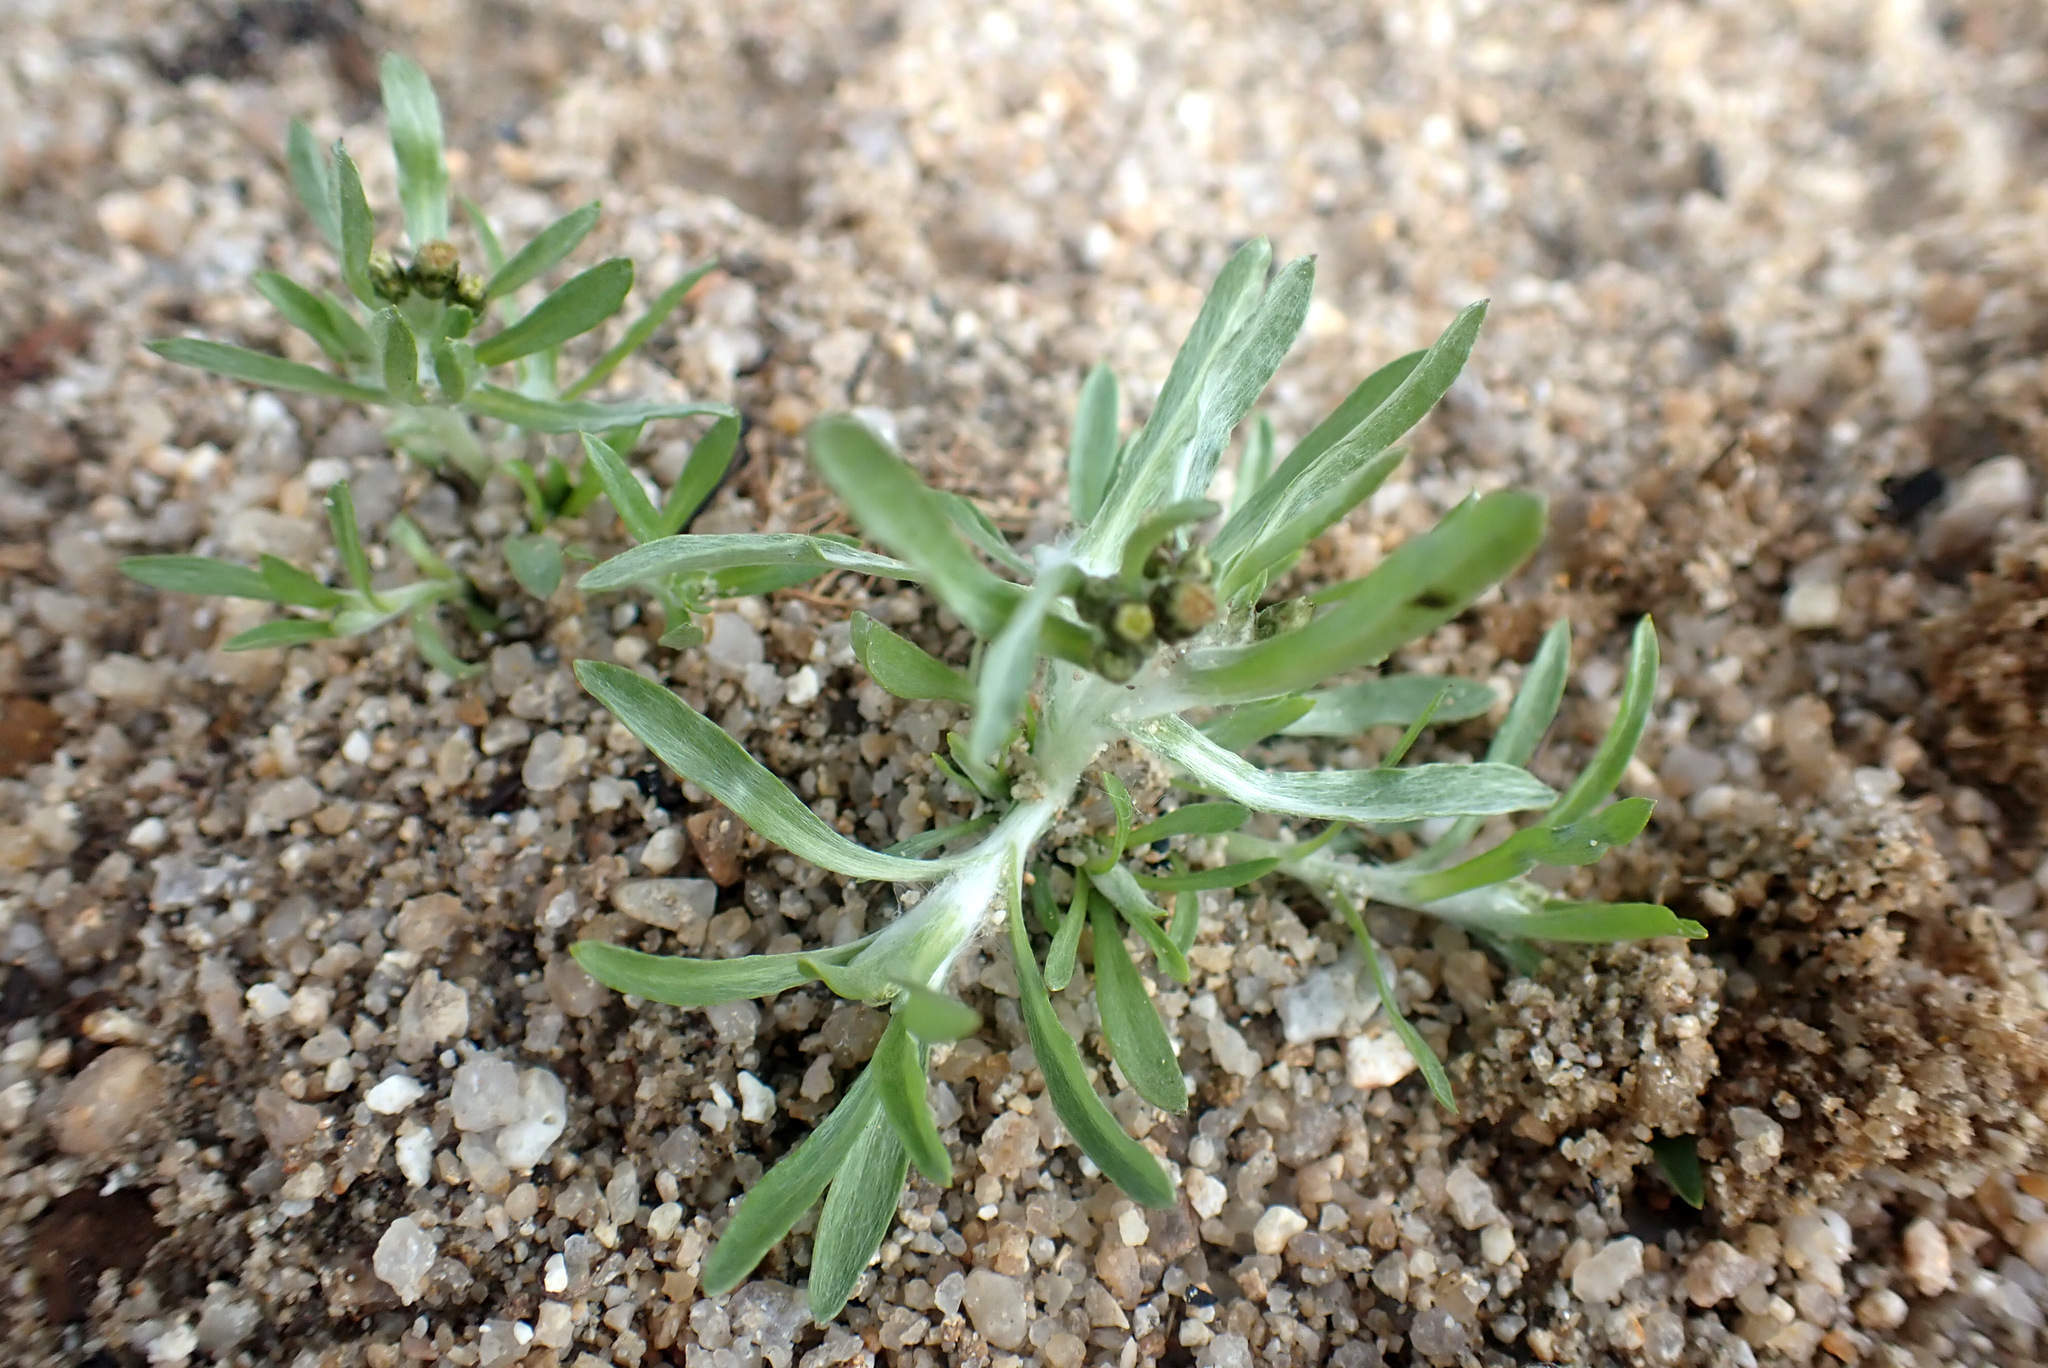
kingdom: Plantae
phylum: Tracheophyta
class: Magnoliopsida
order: Asterales
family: Asteraceae
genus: Gnaphalium
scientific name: Gnaphalium uliginosum
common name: Marsh cudweed
